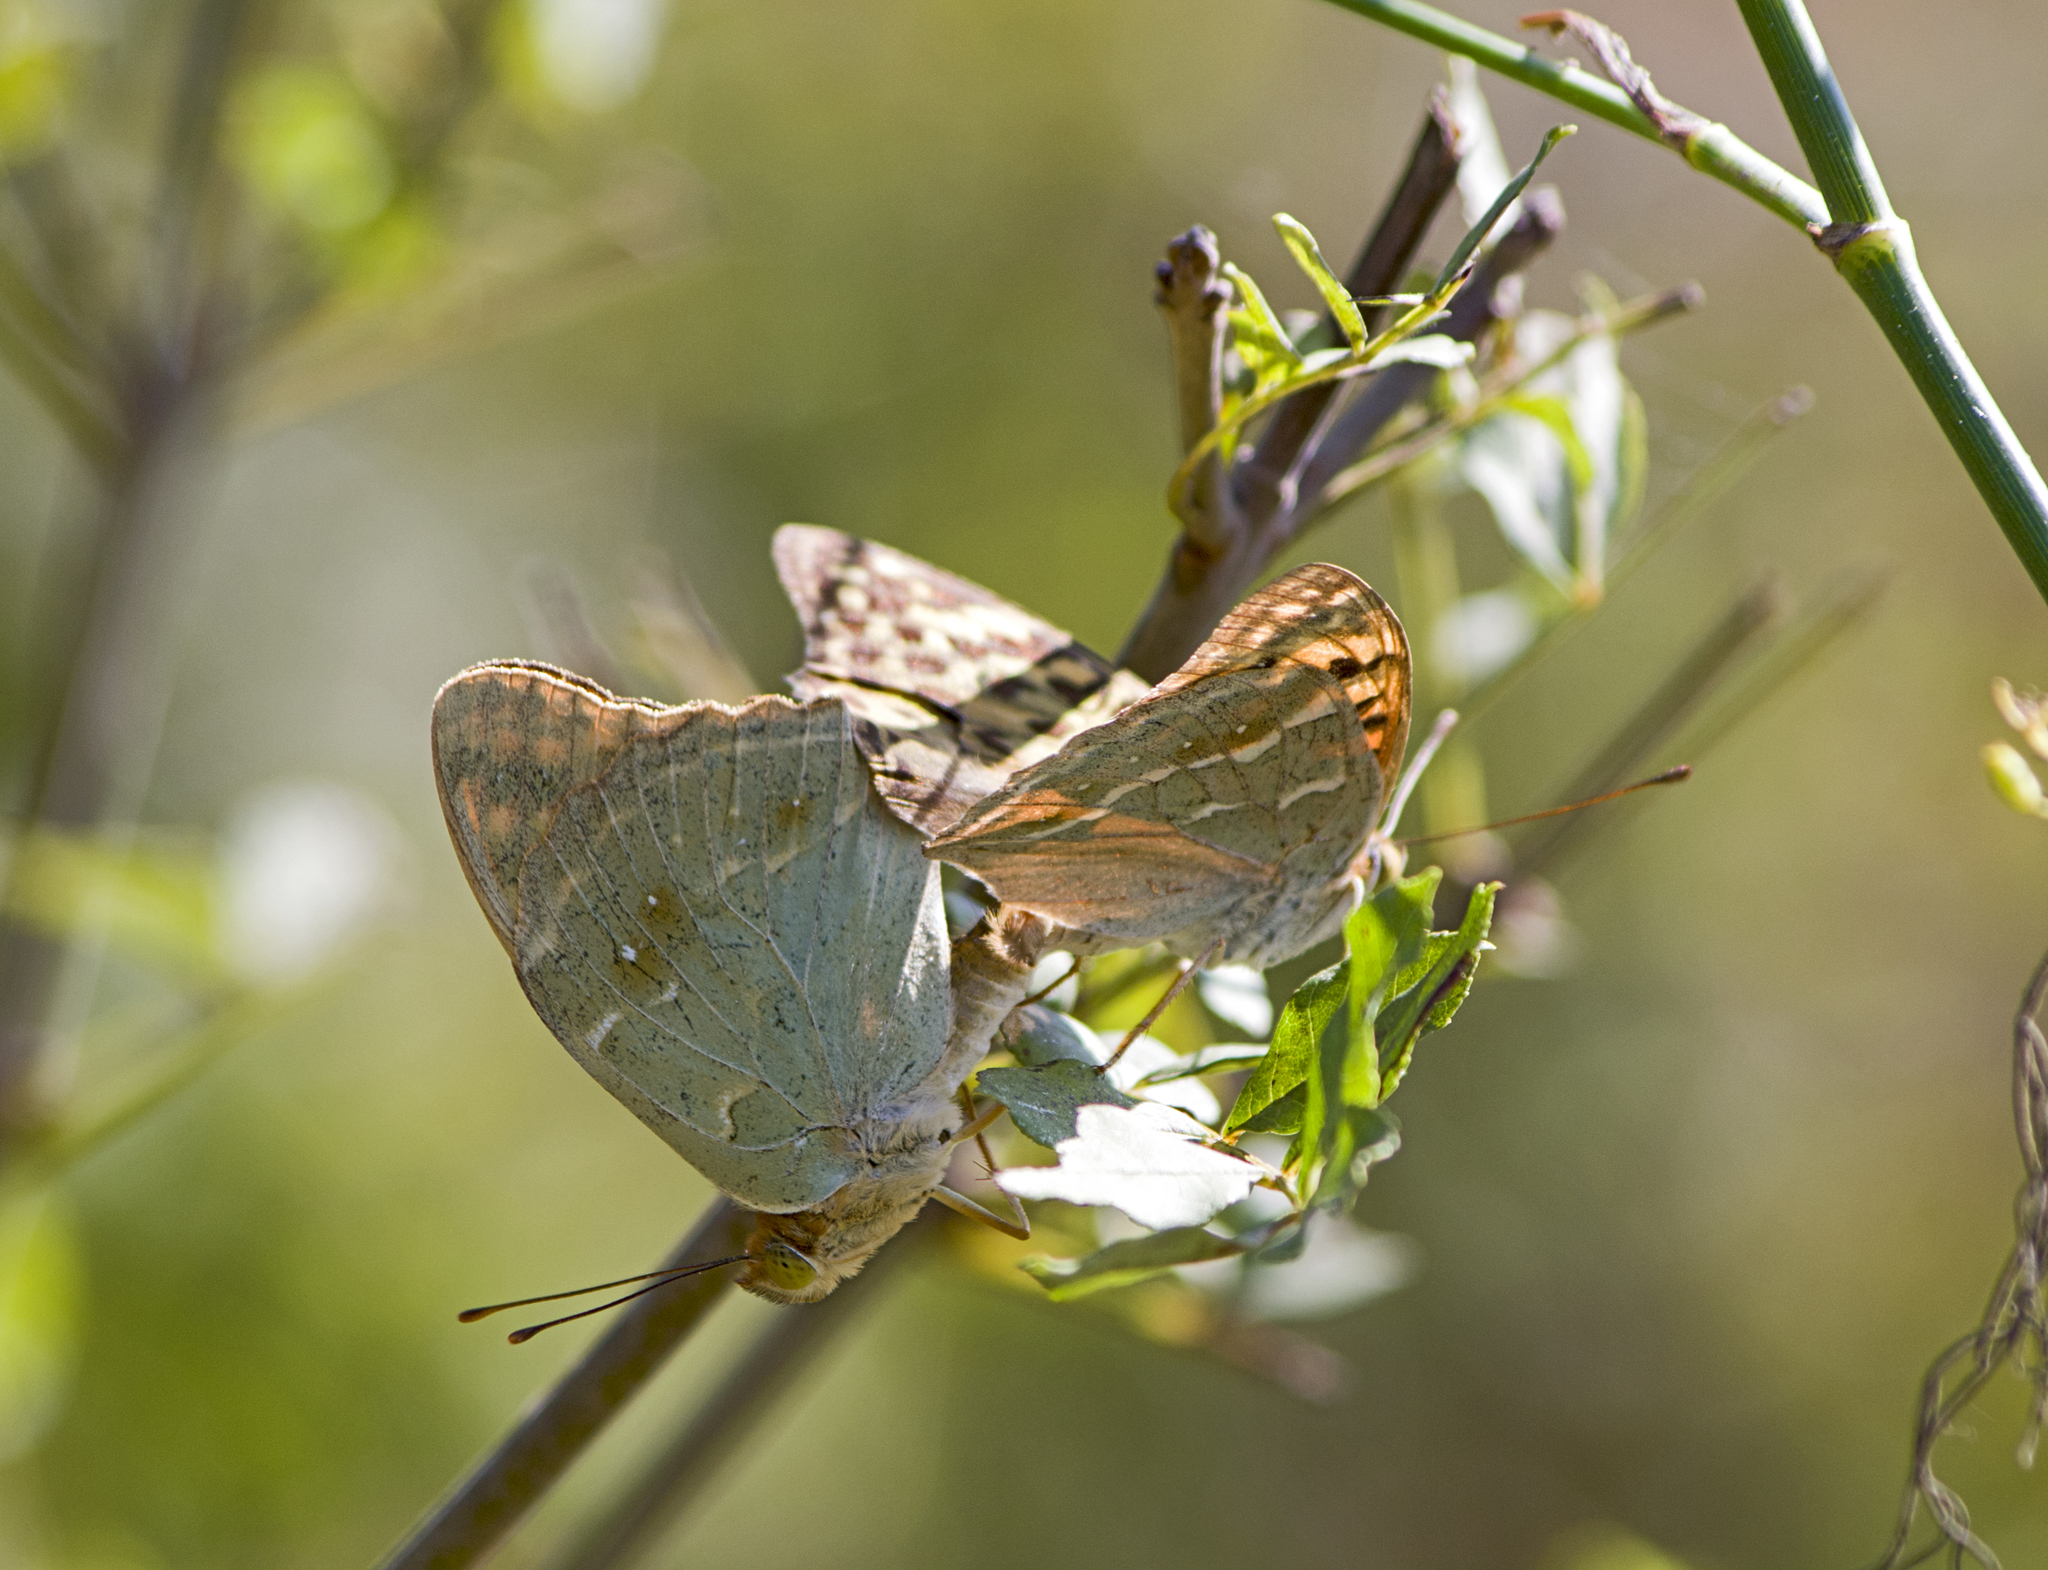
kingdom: Animalia
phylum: Arthropoda
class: Insecta
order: Lepidoptera
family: Nymphalidae
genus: Damora
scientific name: Damora pandora
